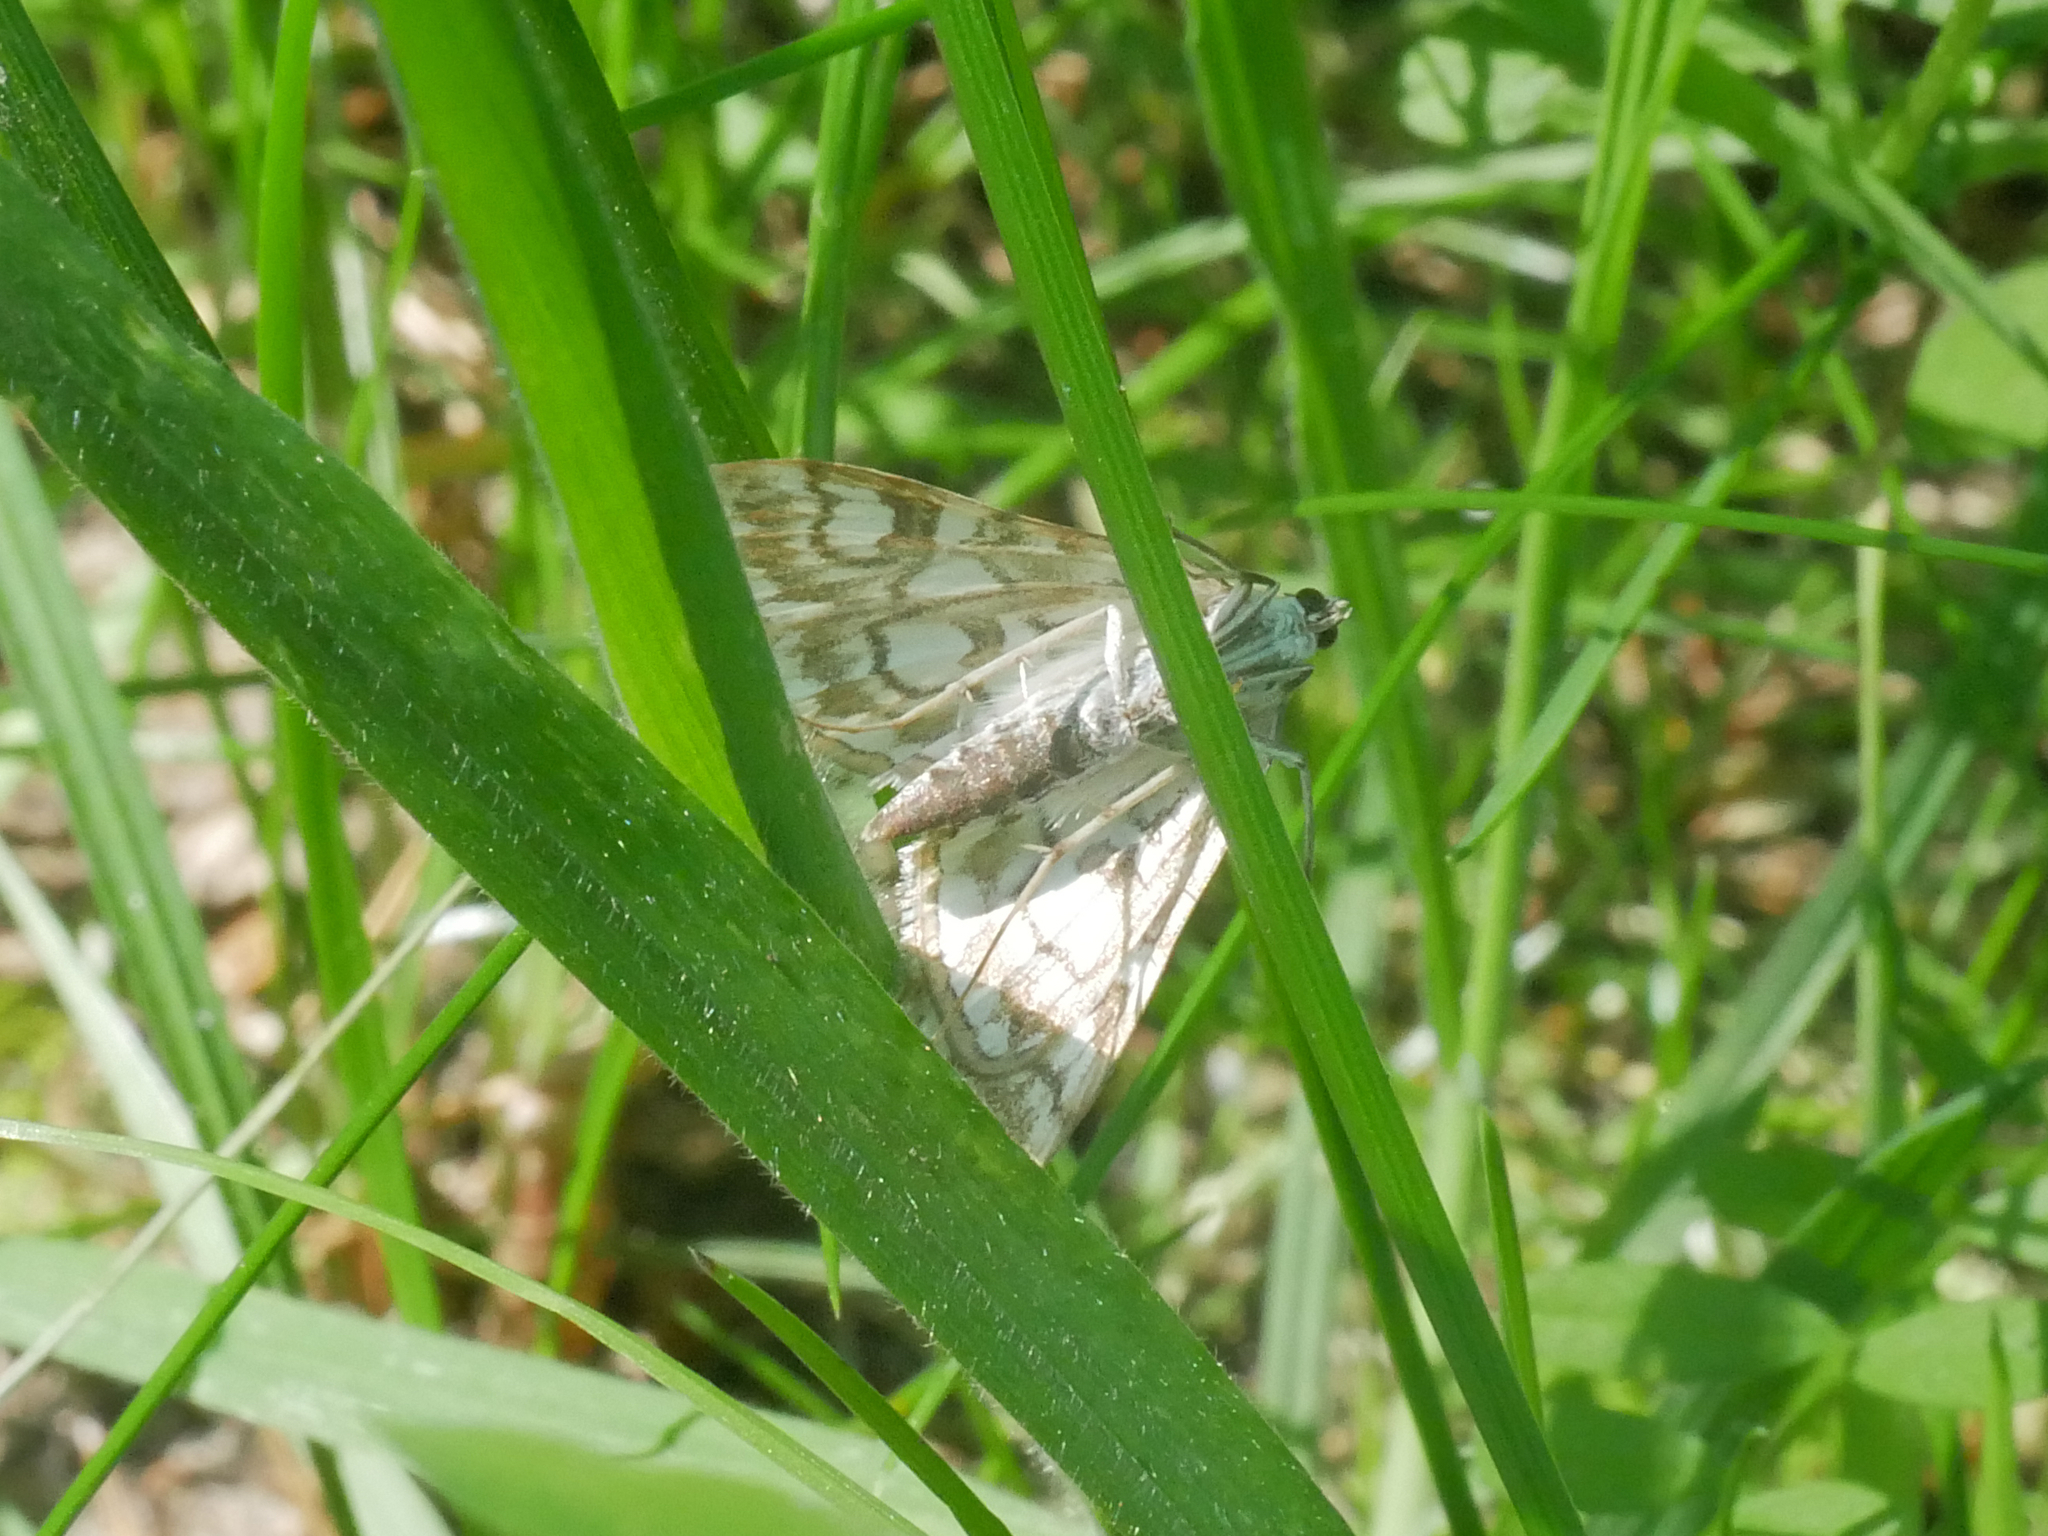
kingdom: Animalia
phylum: Arthropoda
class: Insecta
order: Lepidoptera
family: Crambidae
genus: Elophila
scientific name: Elophila nymphaeata
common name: Brown china-mark
